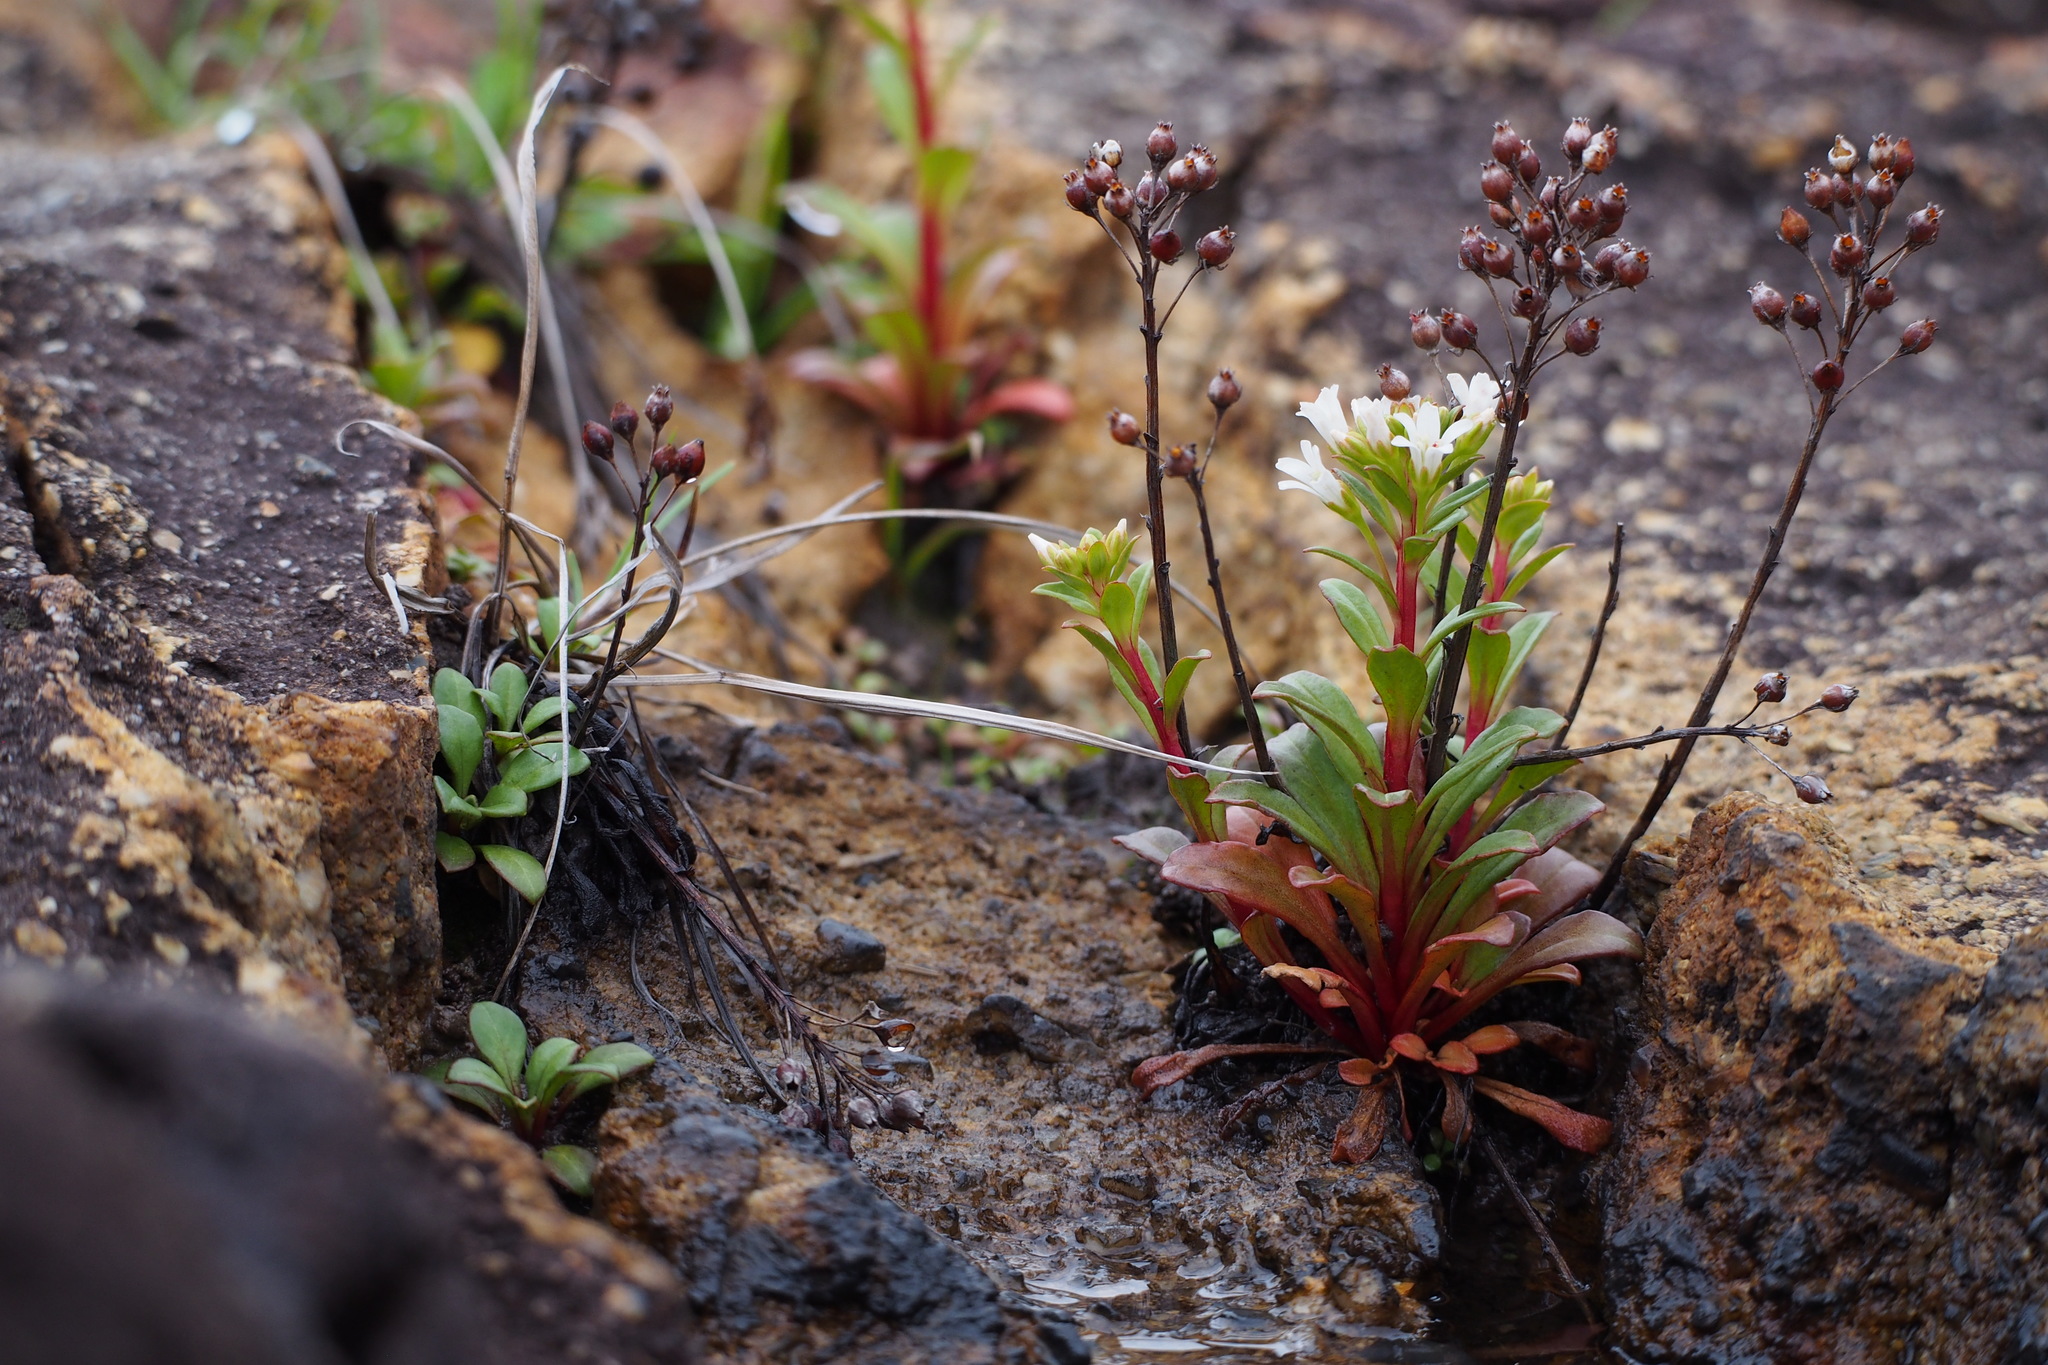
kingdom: Plantae
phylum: Tracheophyta
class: Magnoliopsida
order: Ericales
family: Primulaceae
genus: Lysimachia
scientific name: Lysimachia mauritiana
